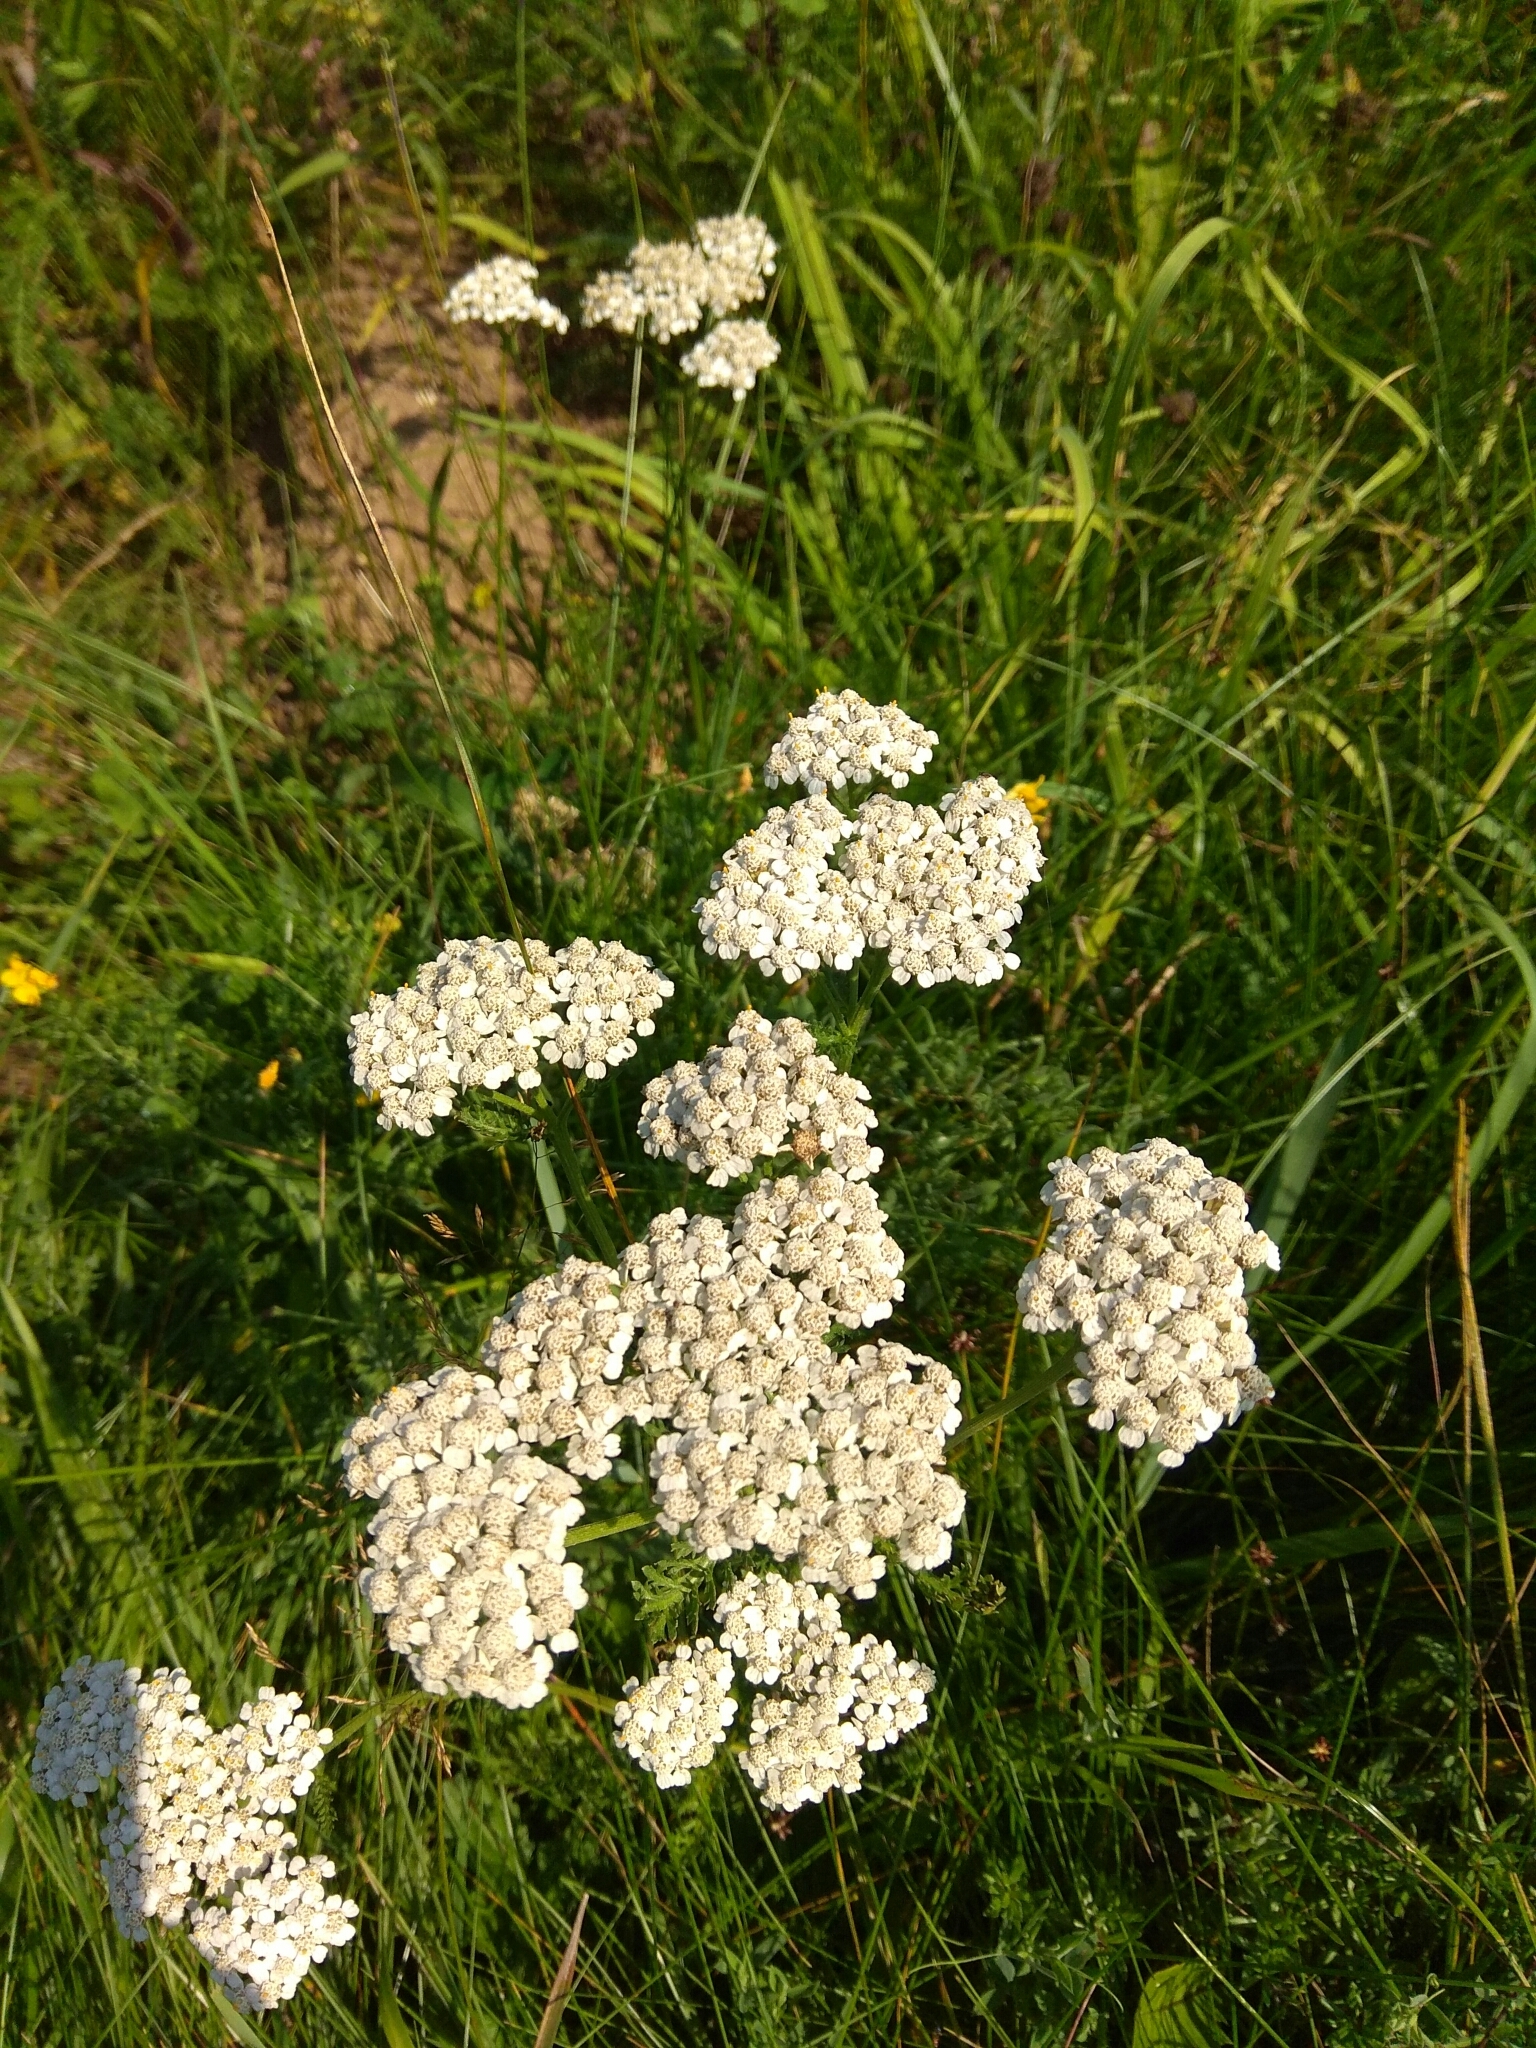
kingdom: Plantae
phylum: Tracheophyta
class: Magnoliopsida
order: Asterales
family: Asteraceae
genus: Achillea
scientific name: Achillea millefolium
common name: Yarrow
